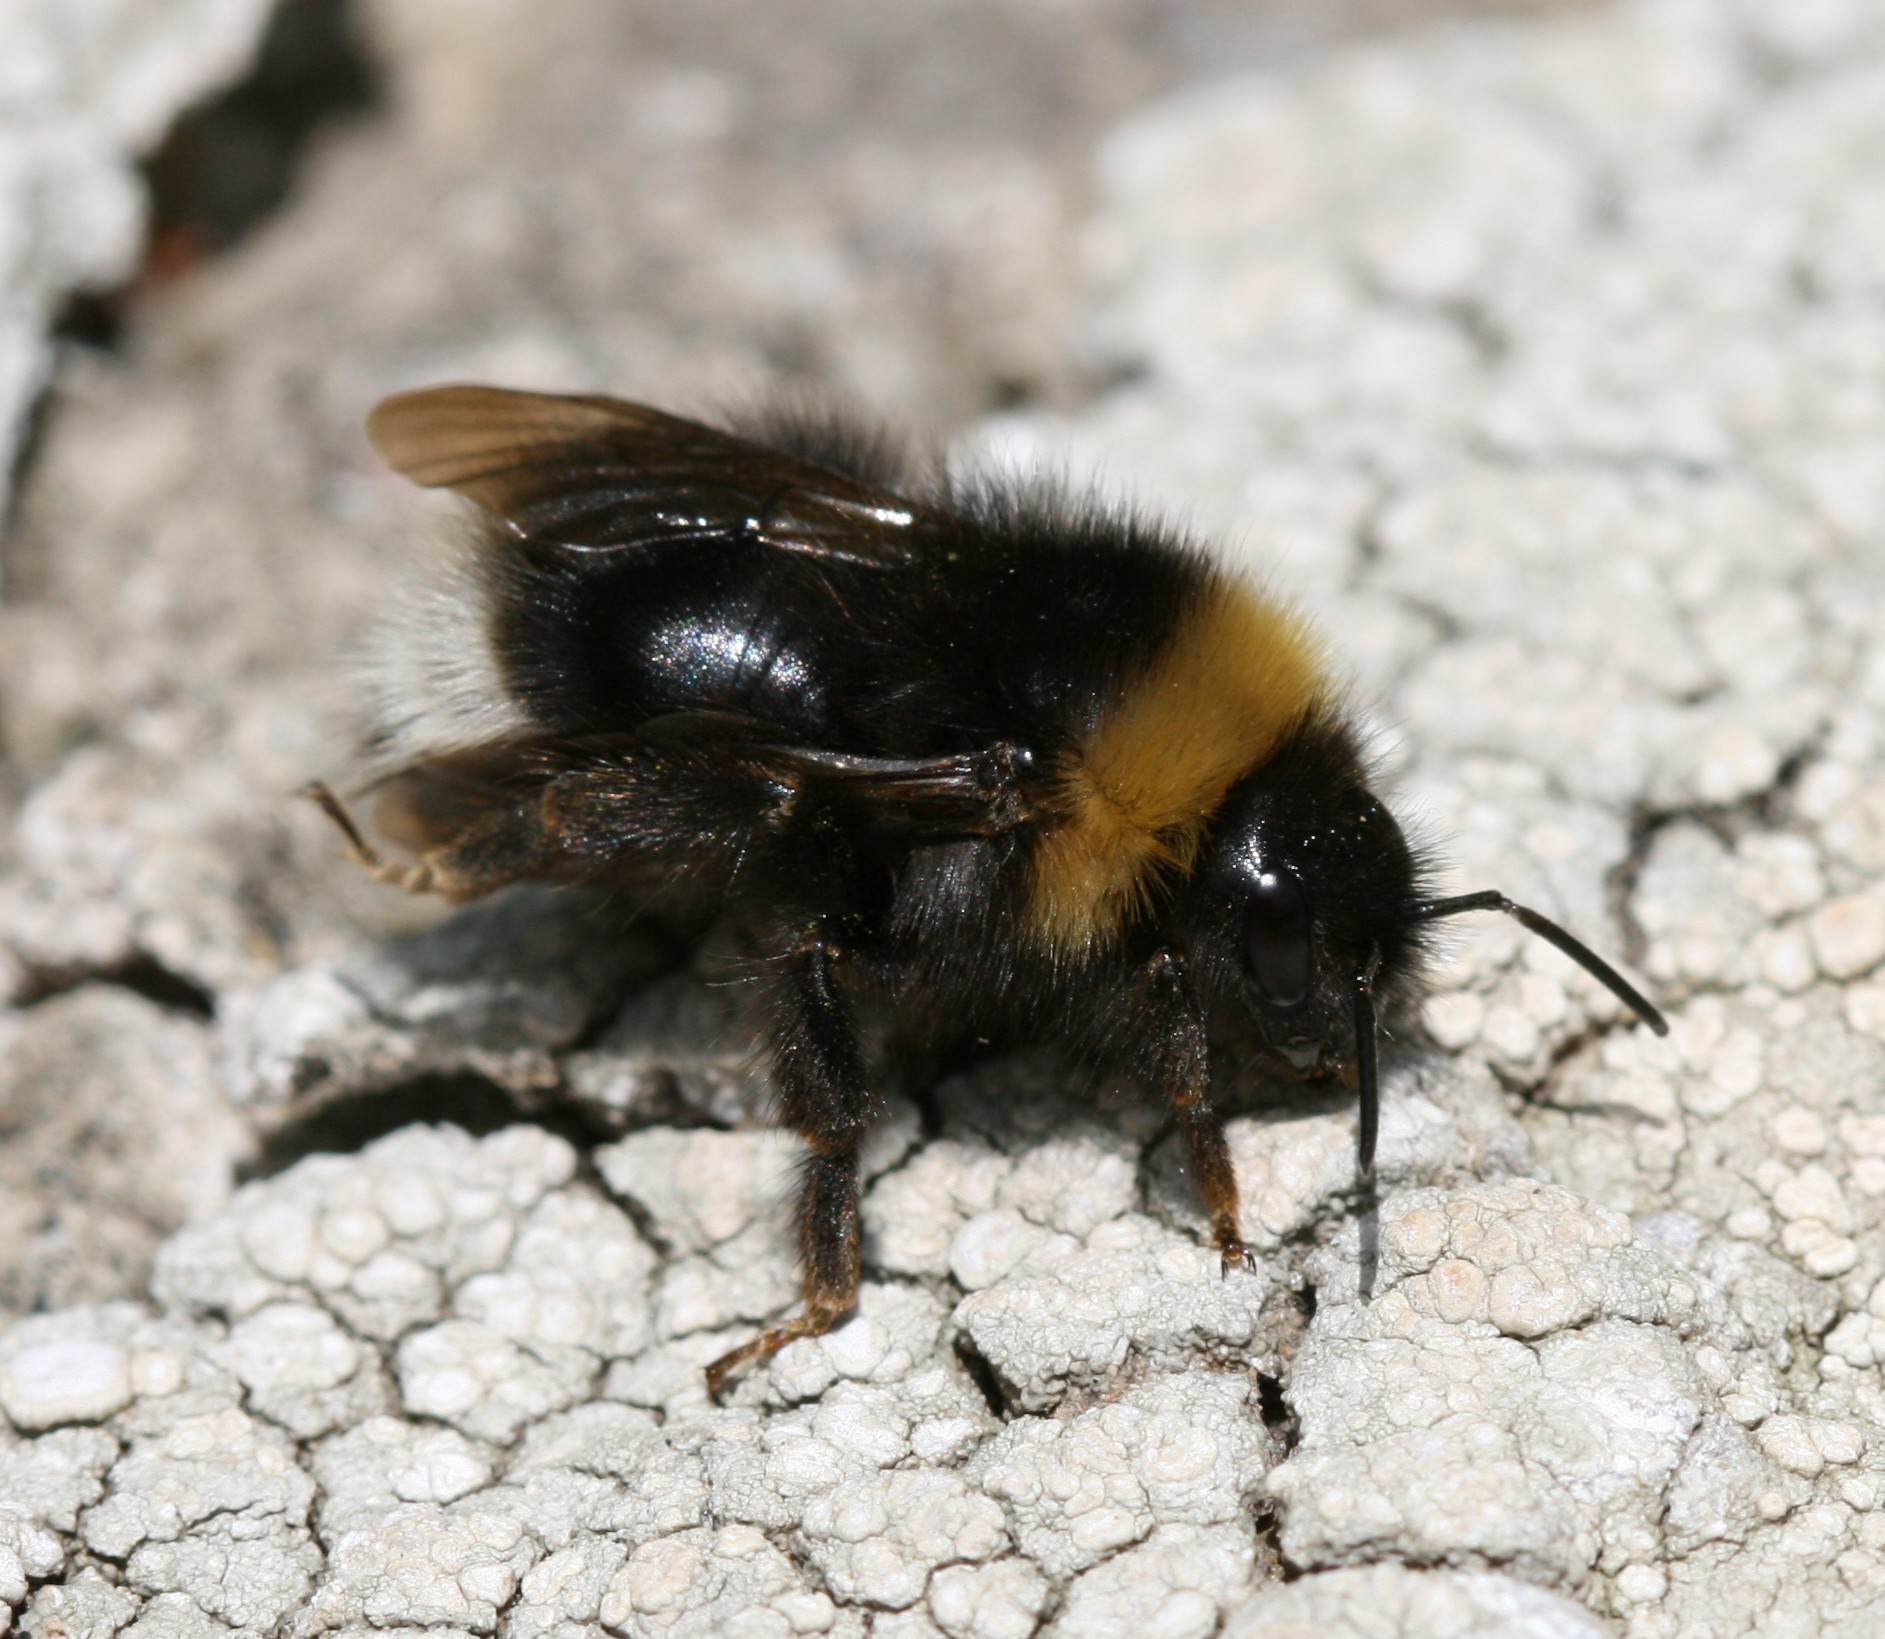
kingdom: Animalia
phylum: Arthropoda
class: Insecta
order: Hymenoptera
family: Apidae
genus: Bombus
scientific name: Bombus sylvestris
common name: Forest cuckoo bee
